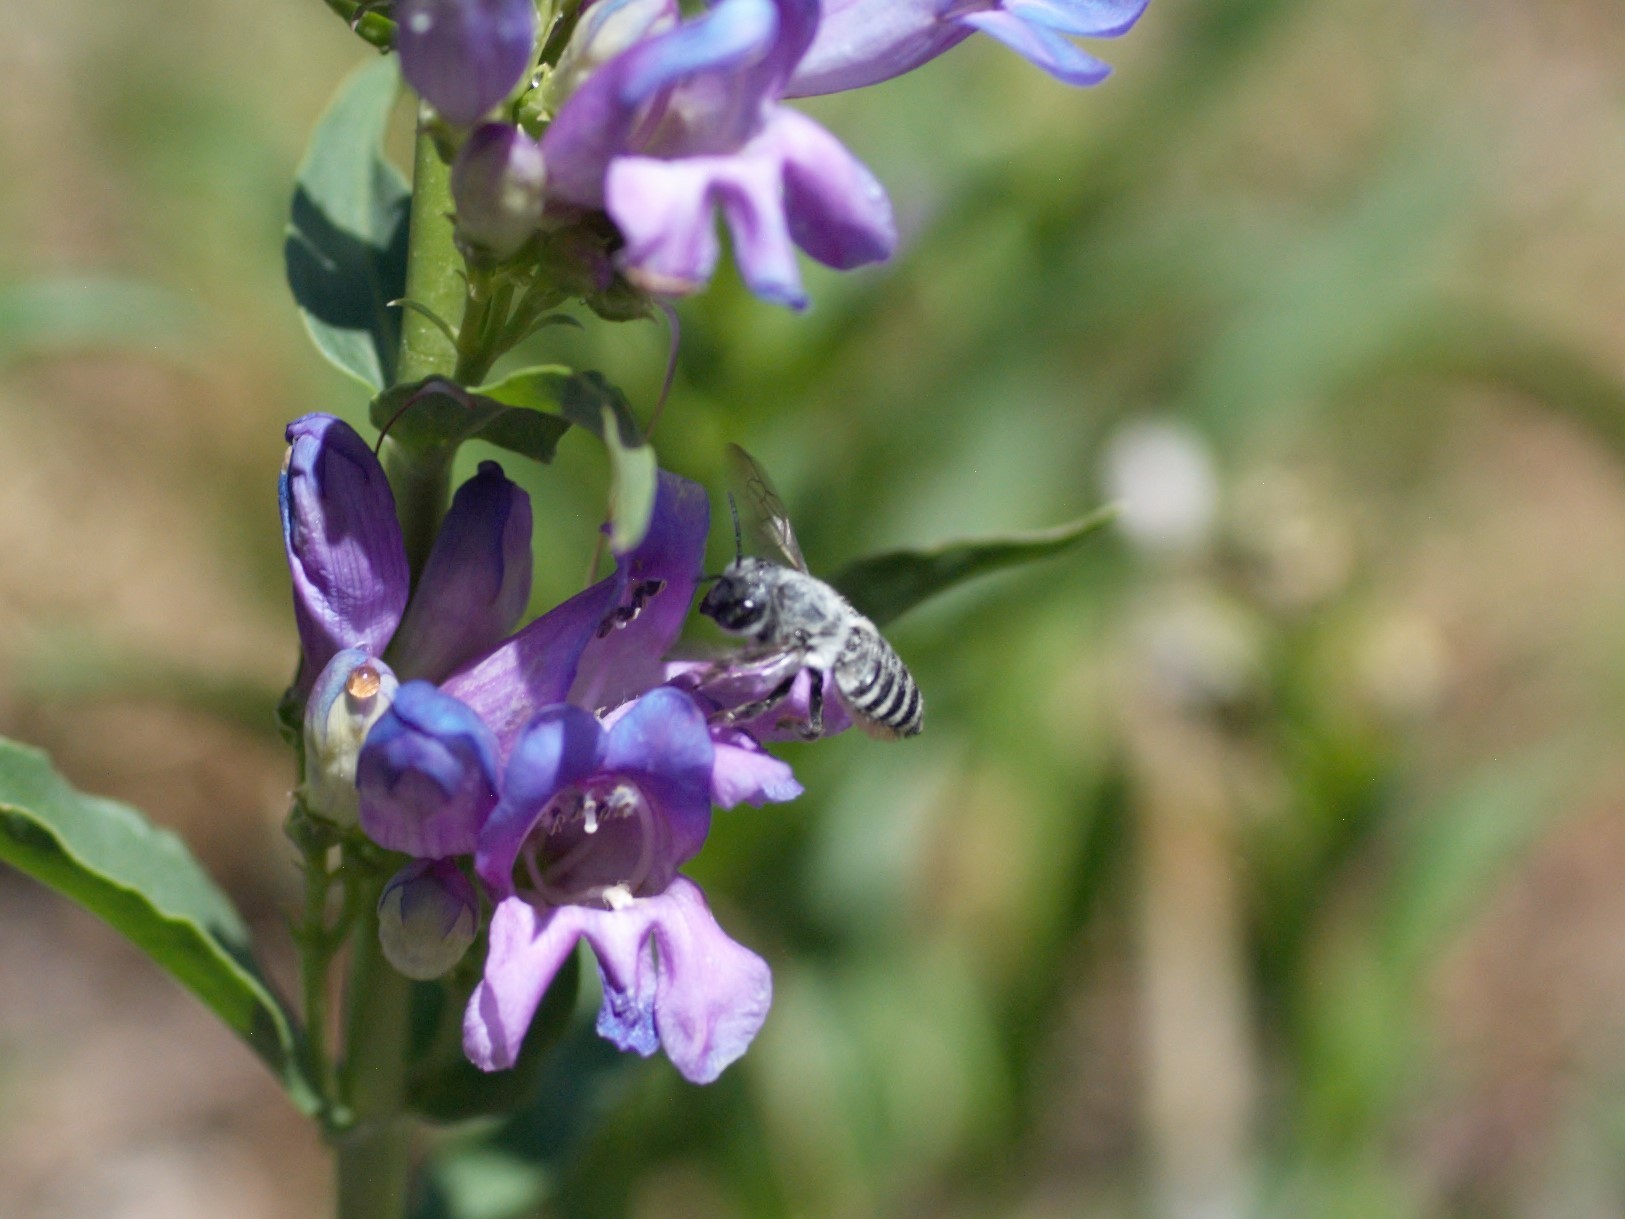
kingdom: Animalia
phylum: Arthropoda
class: Insecta
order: Hymenoptera
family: Megachilidae
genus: Megachile
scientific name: Megachile
